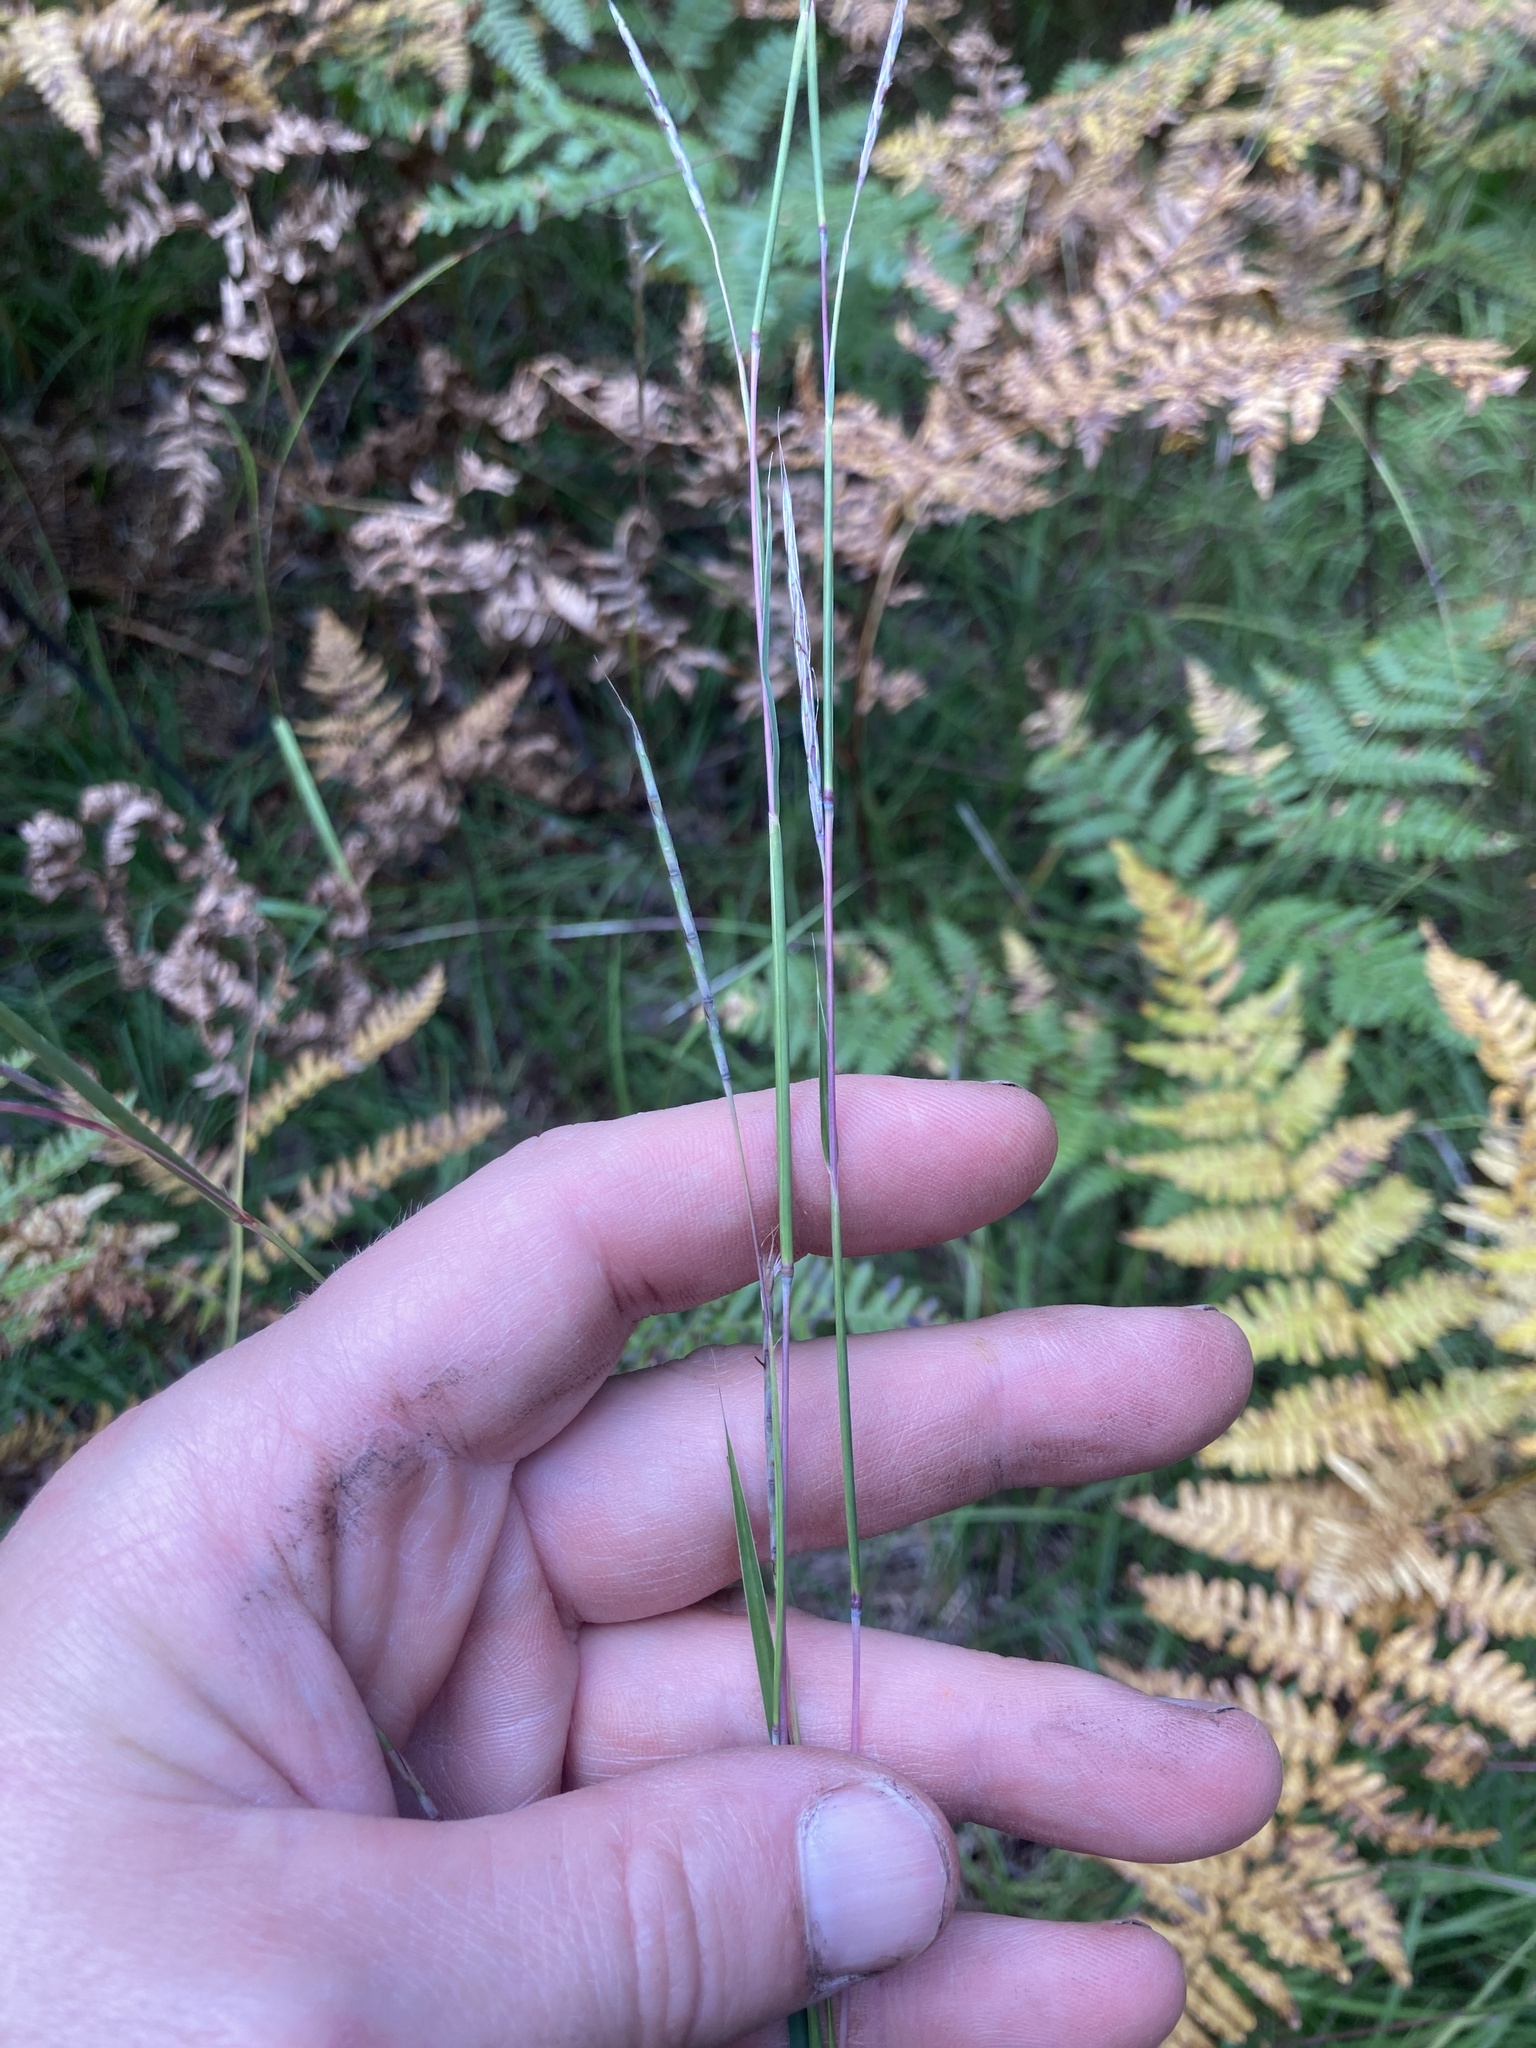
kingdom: Plantae
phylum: Tracheophyta
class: Liliopsida
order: Poales
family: Poaceae
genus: Schizachyrium
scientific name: Schizachyrium scoparium
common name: Little bluestem
